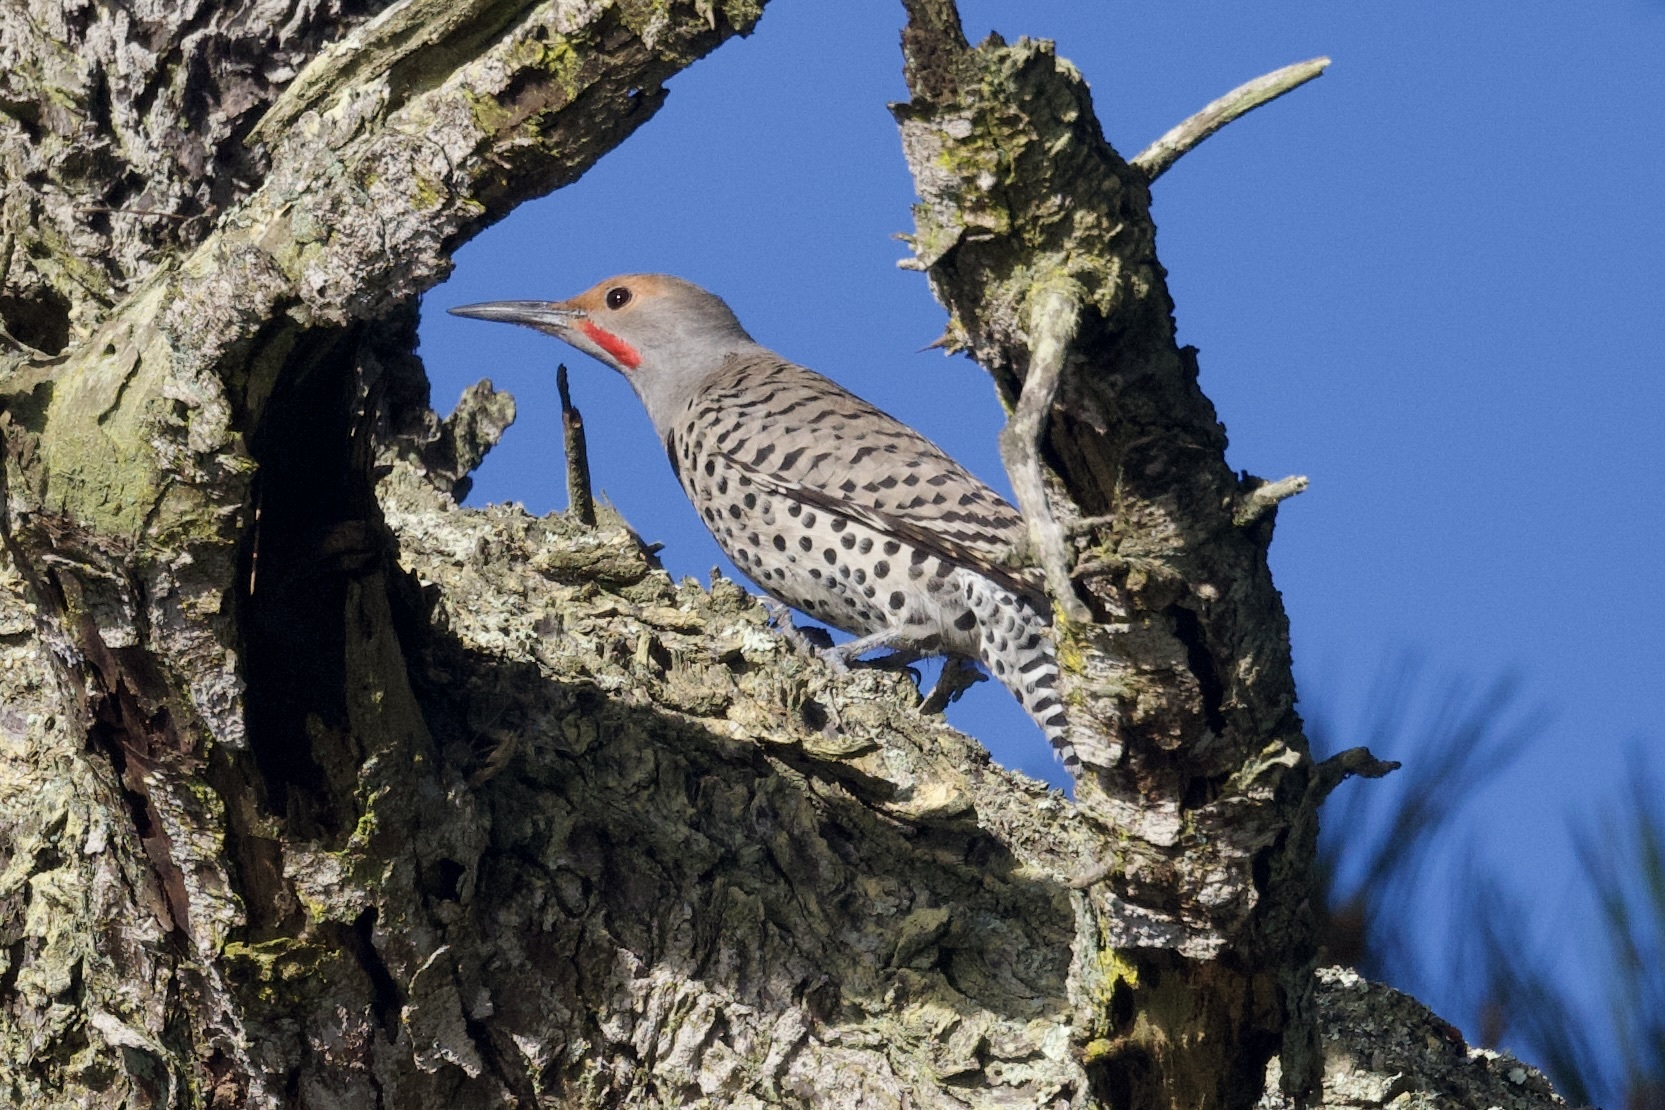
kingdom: Animalia
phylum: Chordata
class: Aves
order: Piciformes
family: Picidae
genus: Colaptes
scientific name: Colaptes auratus
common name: Northern flicker
